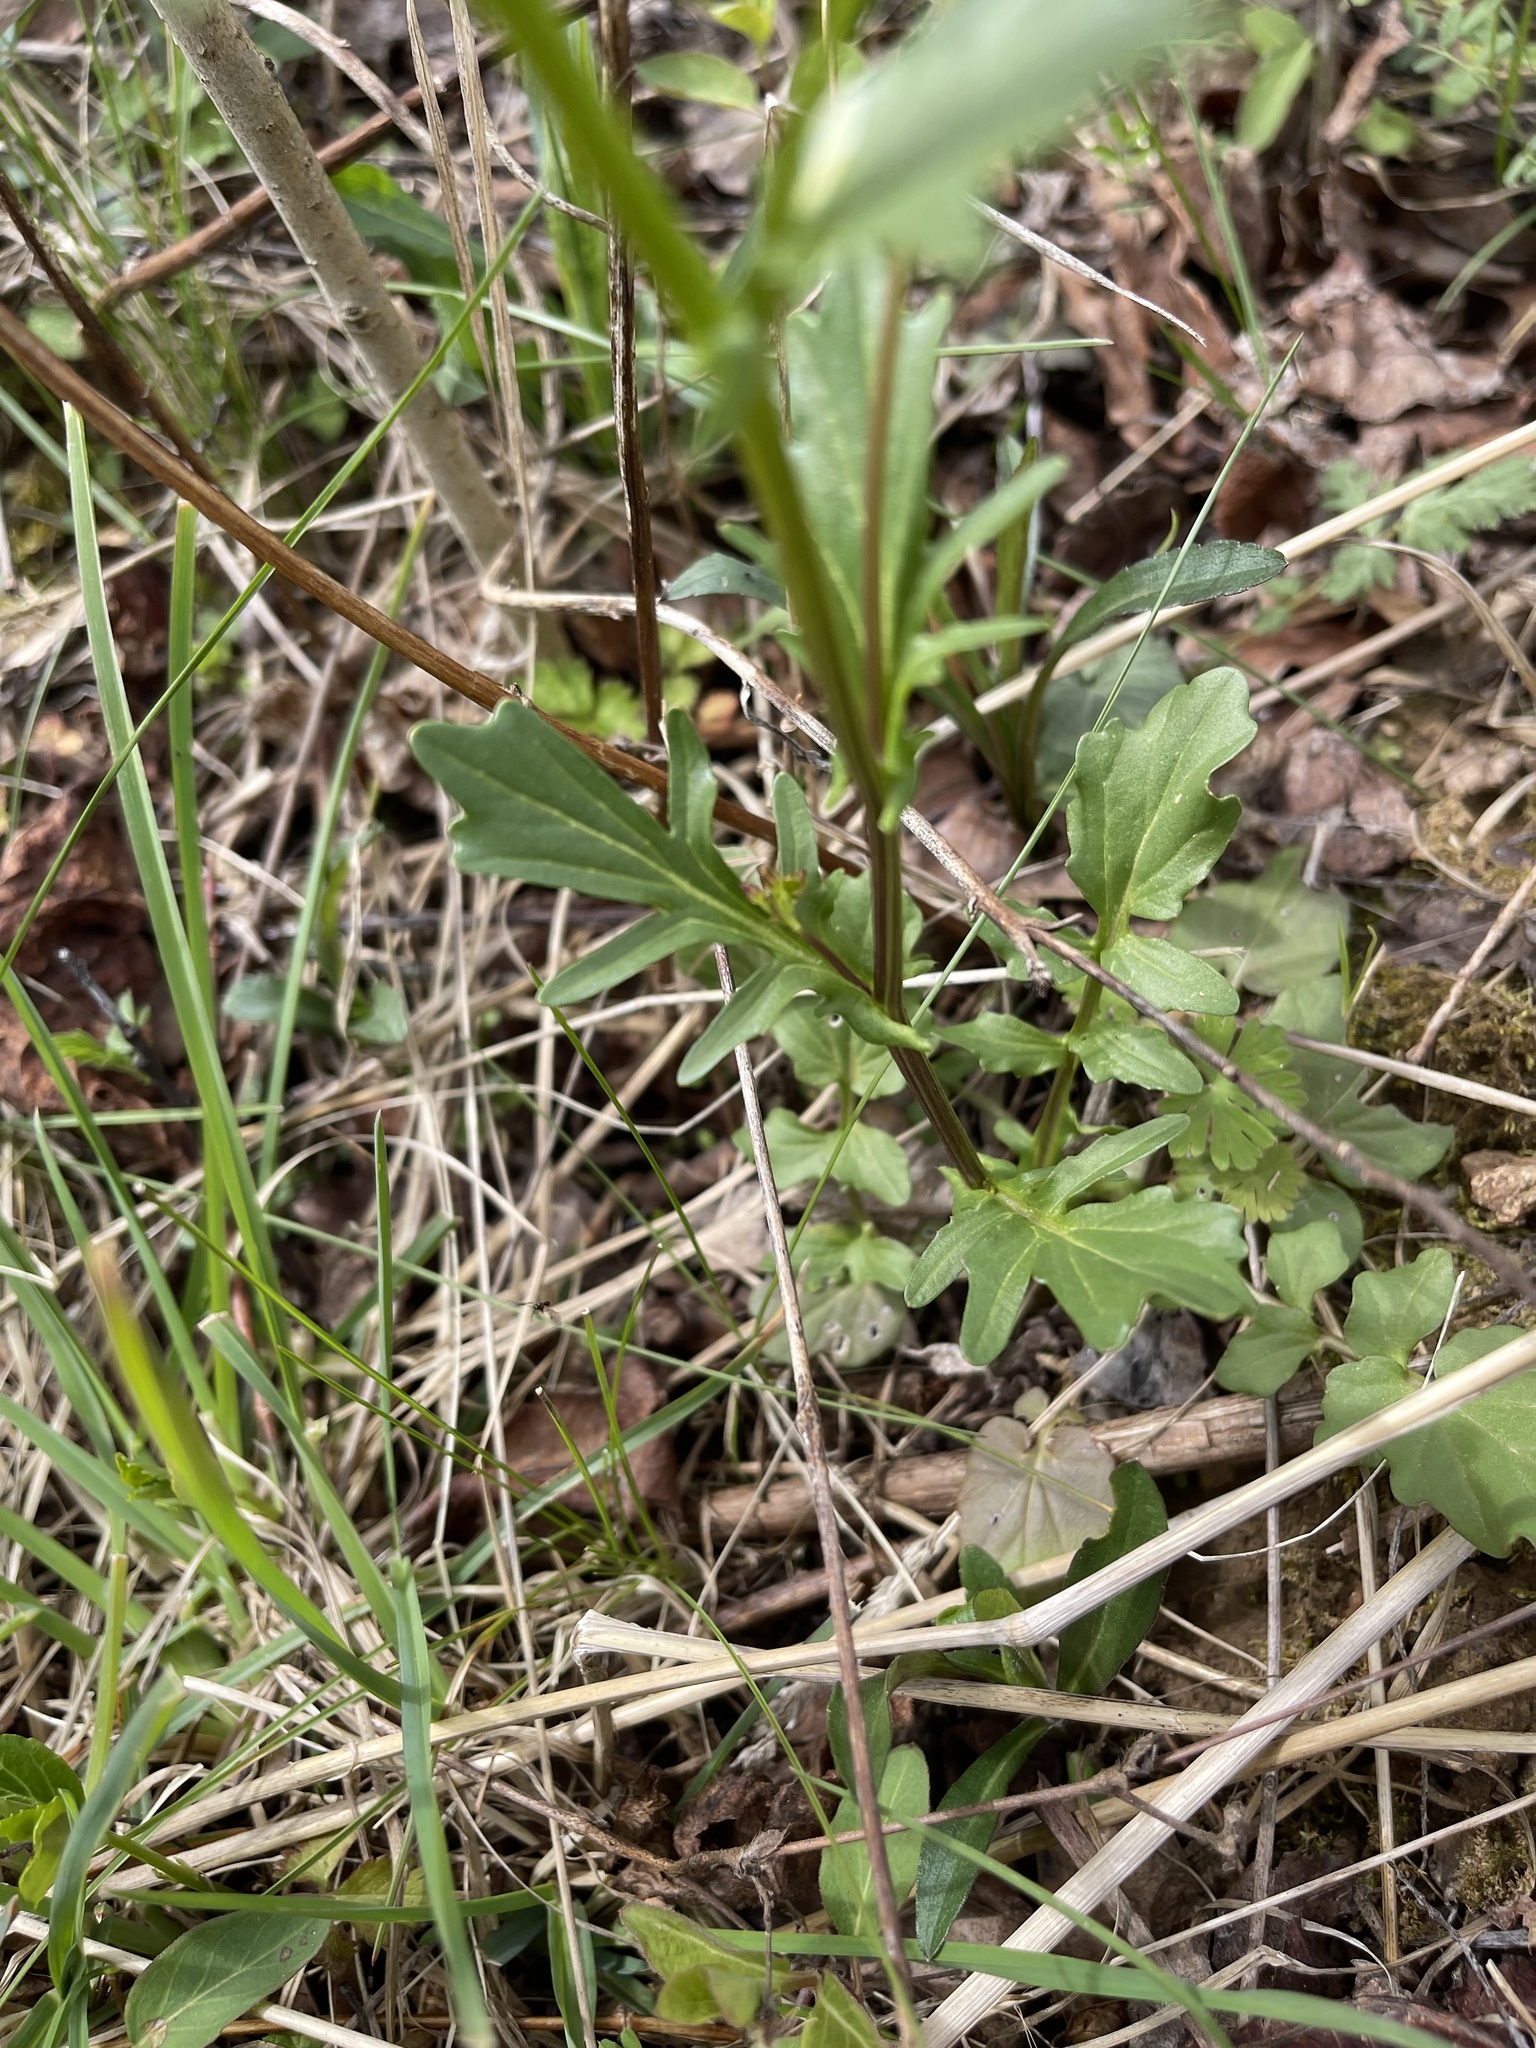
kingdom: Plantae
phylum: Tracheophyta
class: Magnoliopsida
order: Brassicales
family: Brassicaceae
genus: Barbarea
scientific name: Barbarea vulgaris
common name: Cressy-greens
